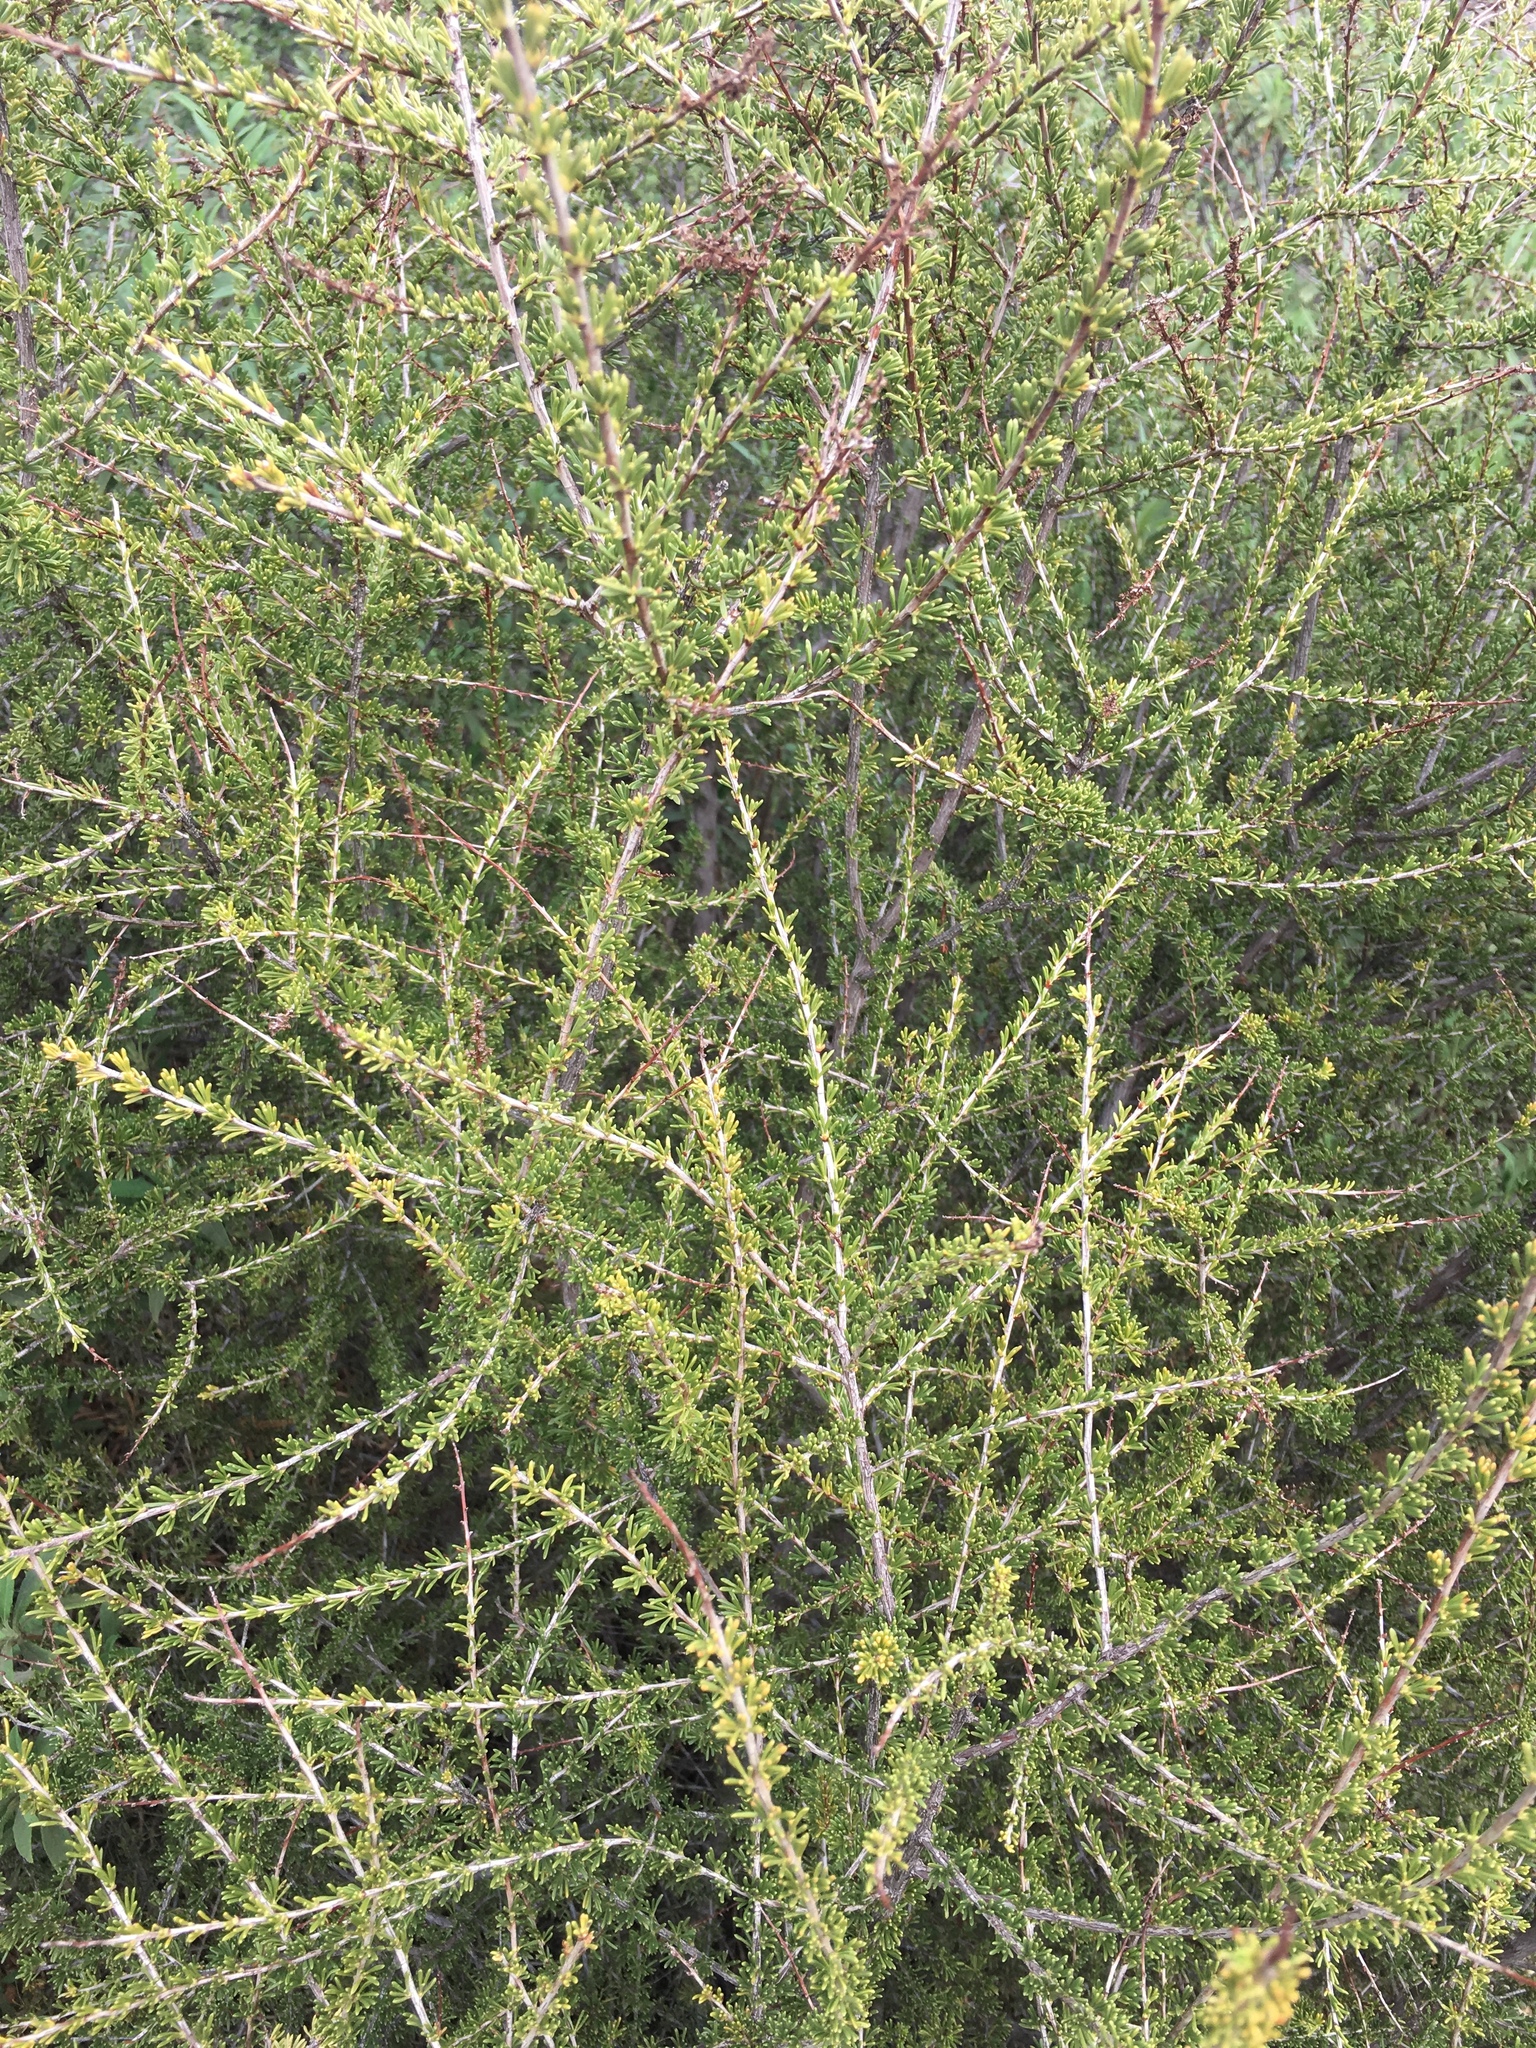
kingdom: Plantae
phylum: Tracheophyta
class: Magnoliopsida
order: Rosales
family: Rosaceae
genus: Adenostoma
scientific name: Adenostoma fasciculatum
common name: Chamise
